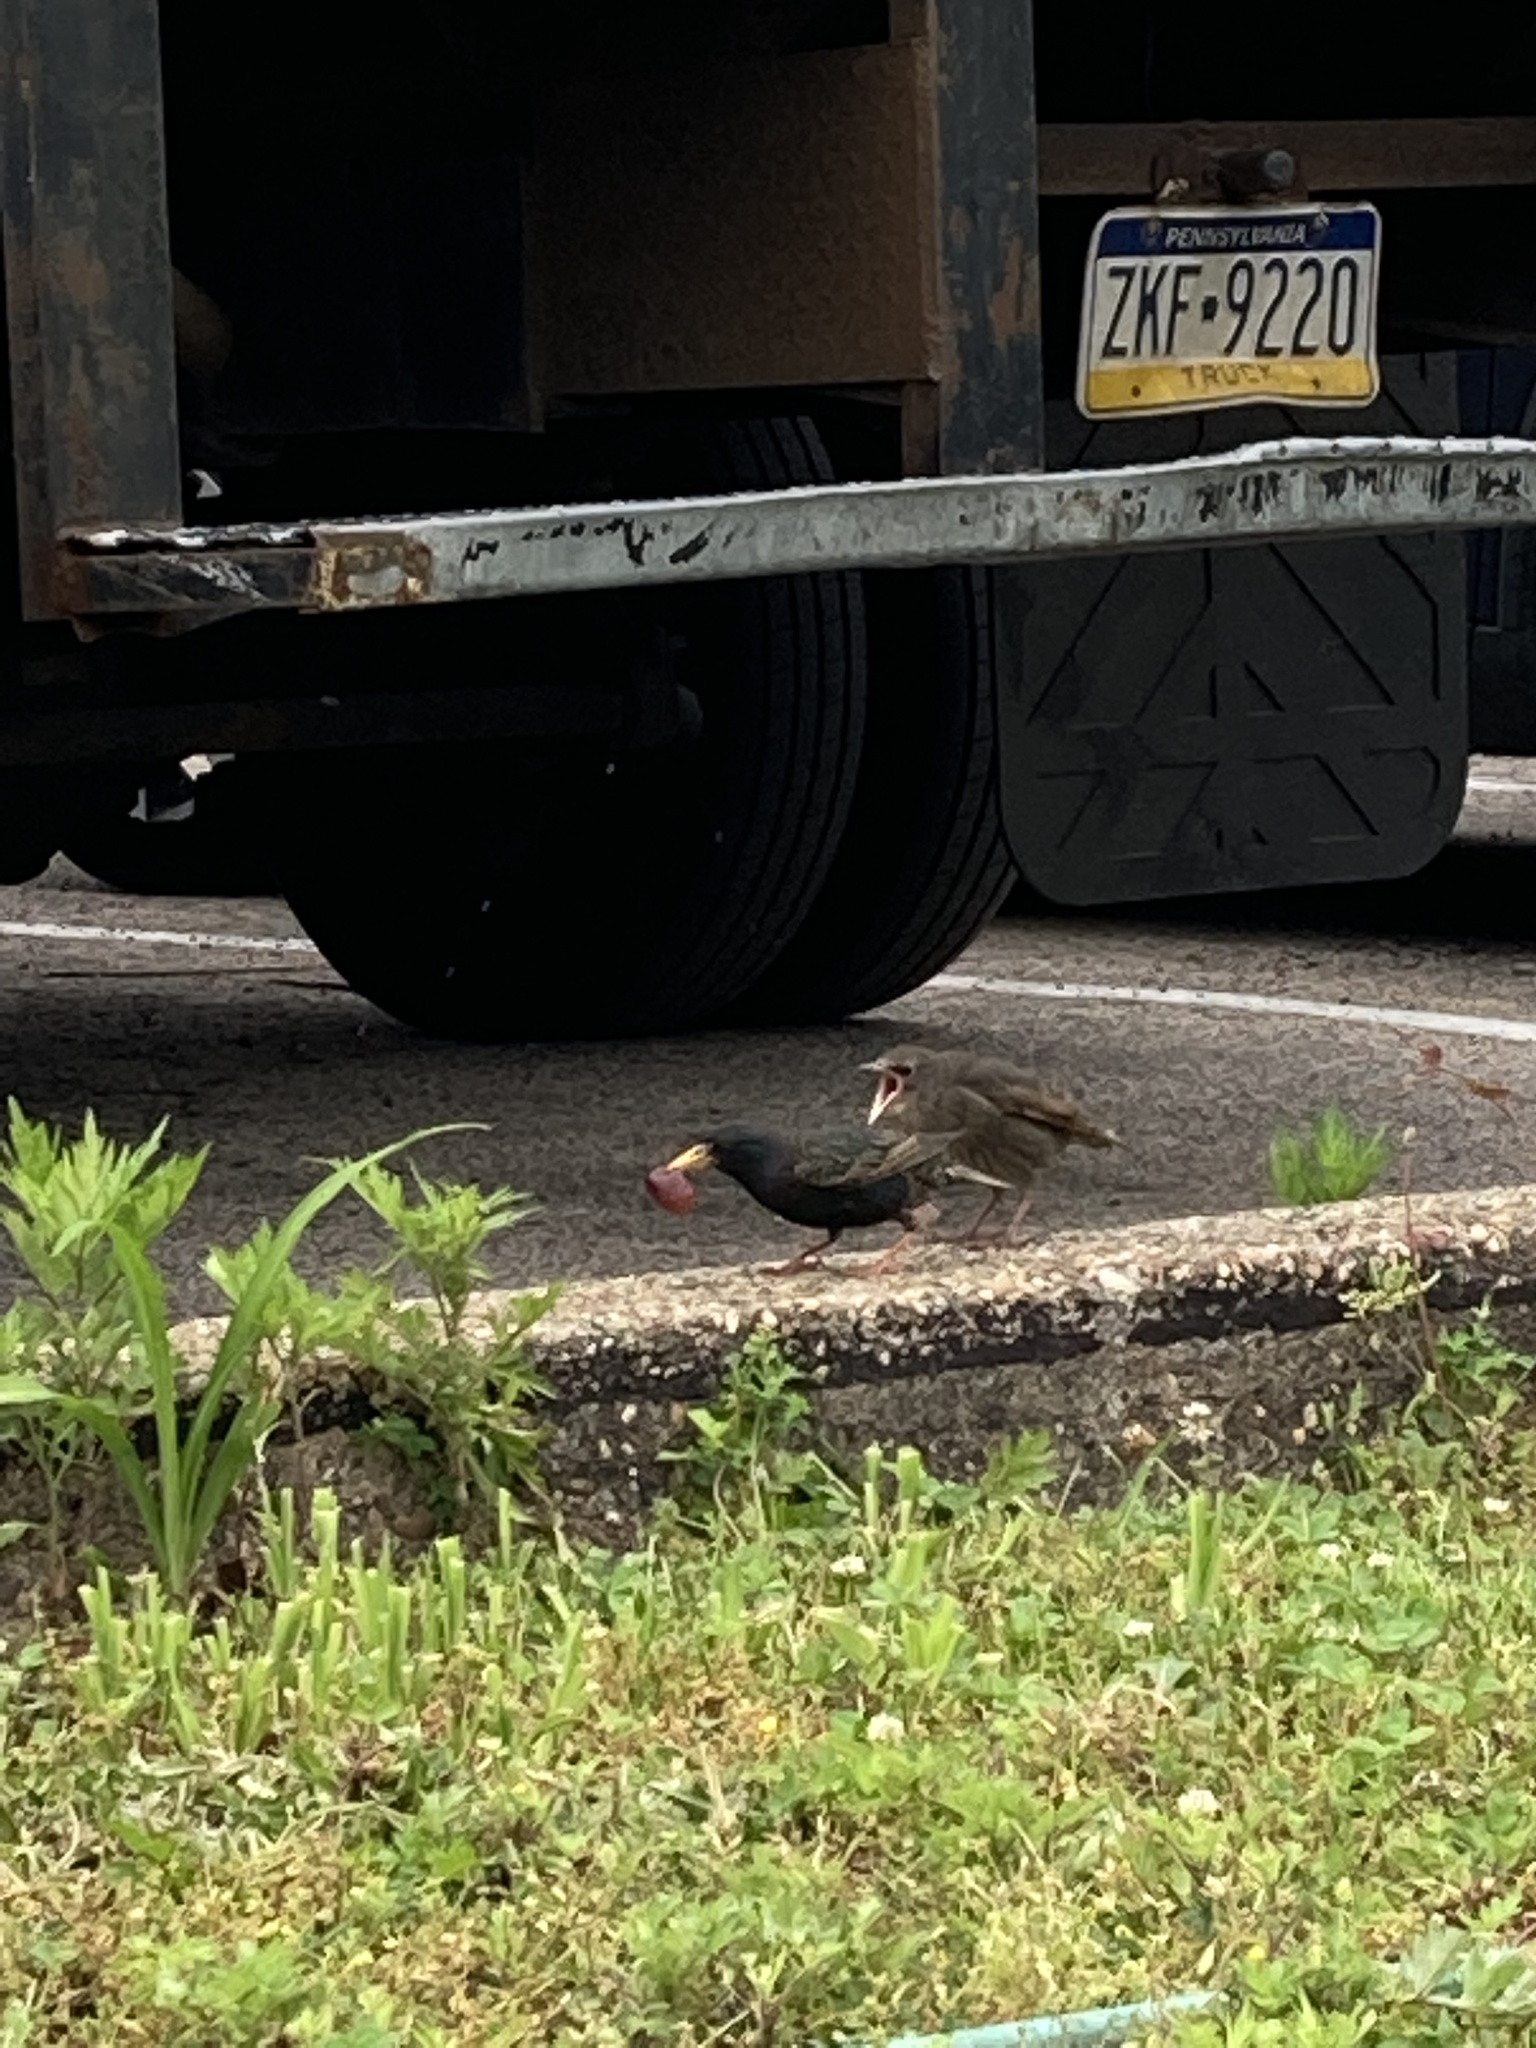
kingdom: Animalia
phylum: Chordata
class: Aves
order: Passeriformes
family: Sturnidae
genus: Sturnus
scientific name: Sturnus vulgaris
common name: Common starling
